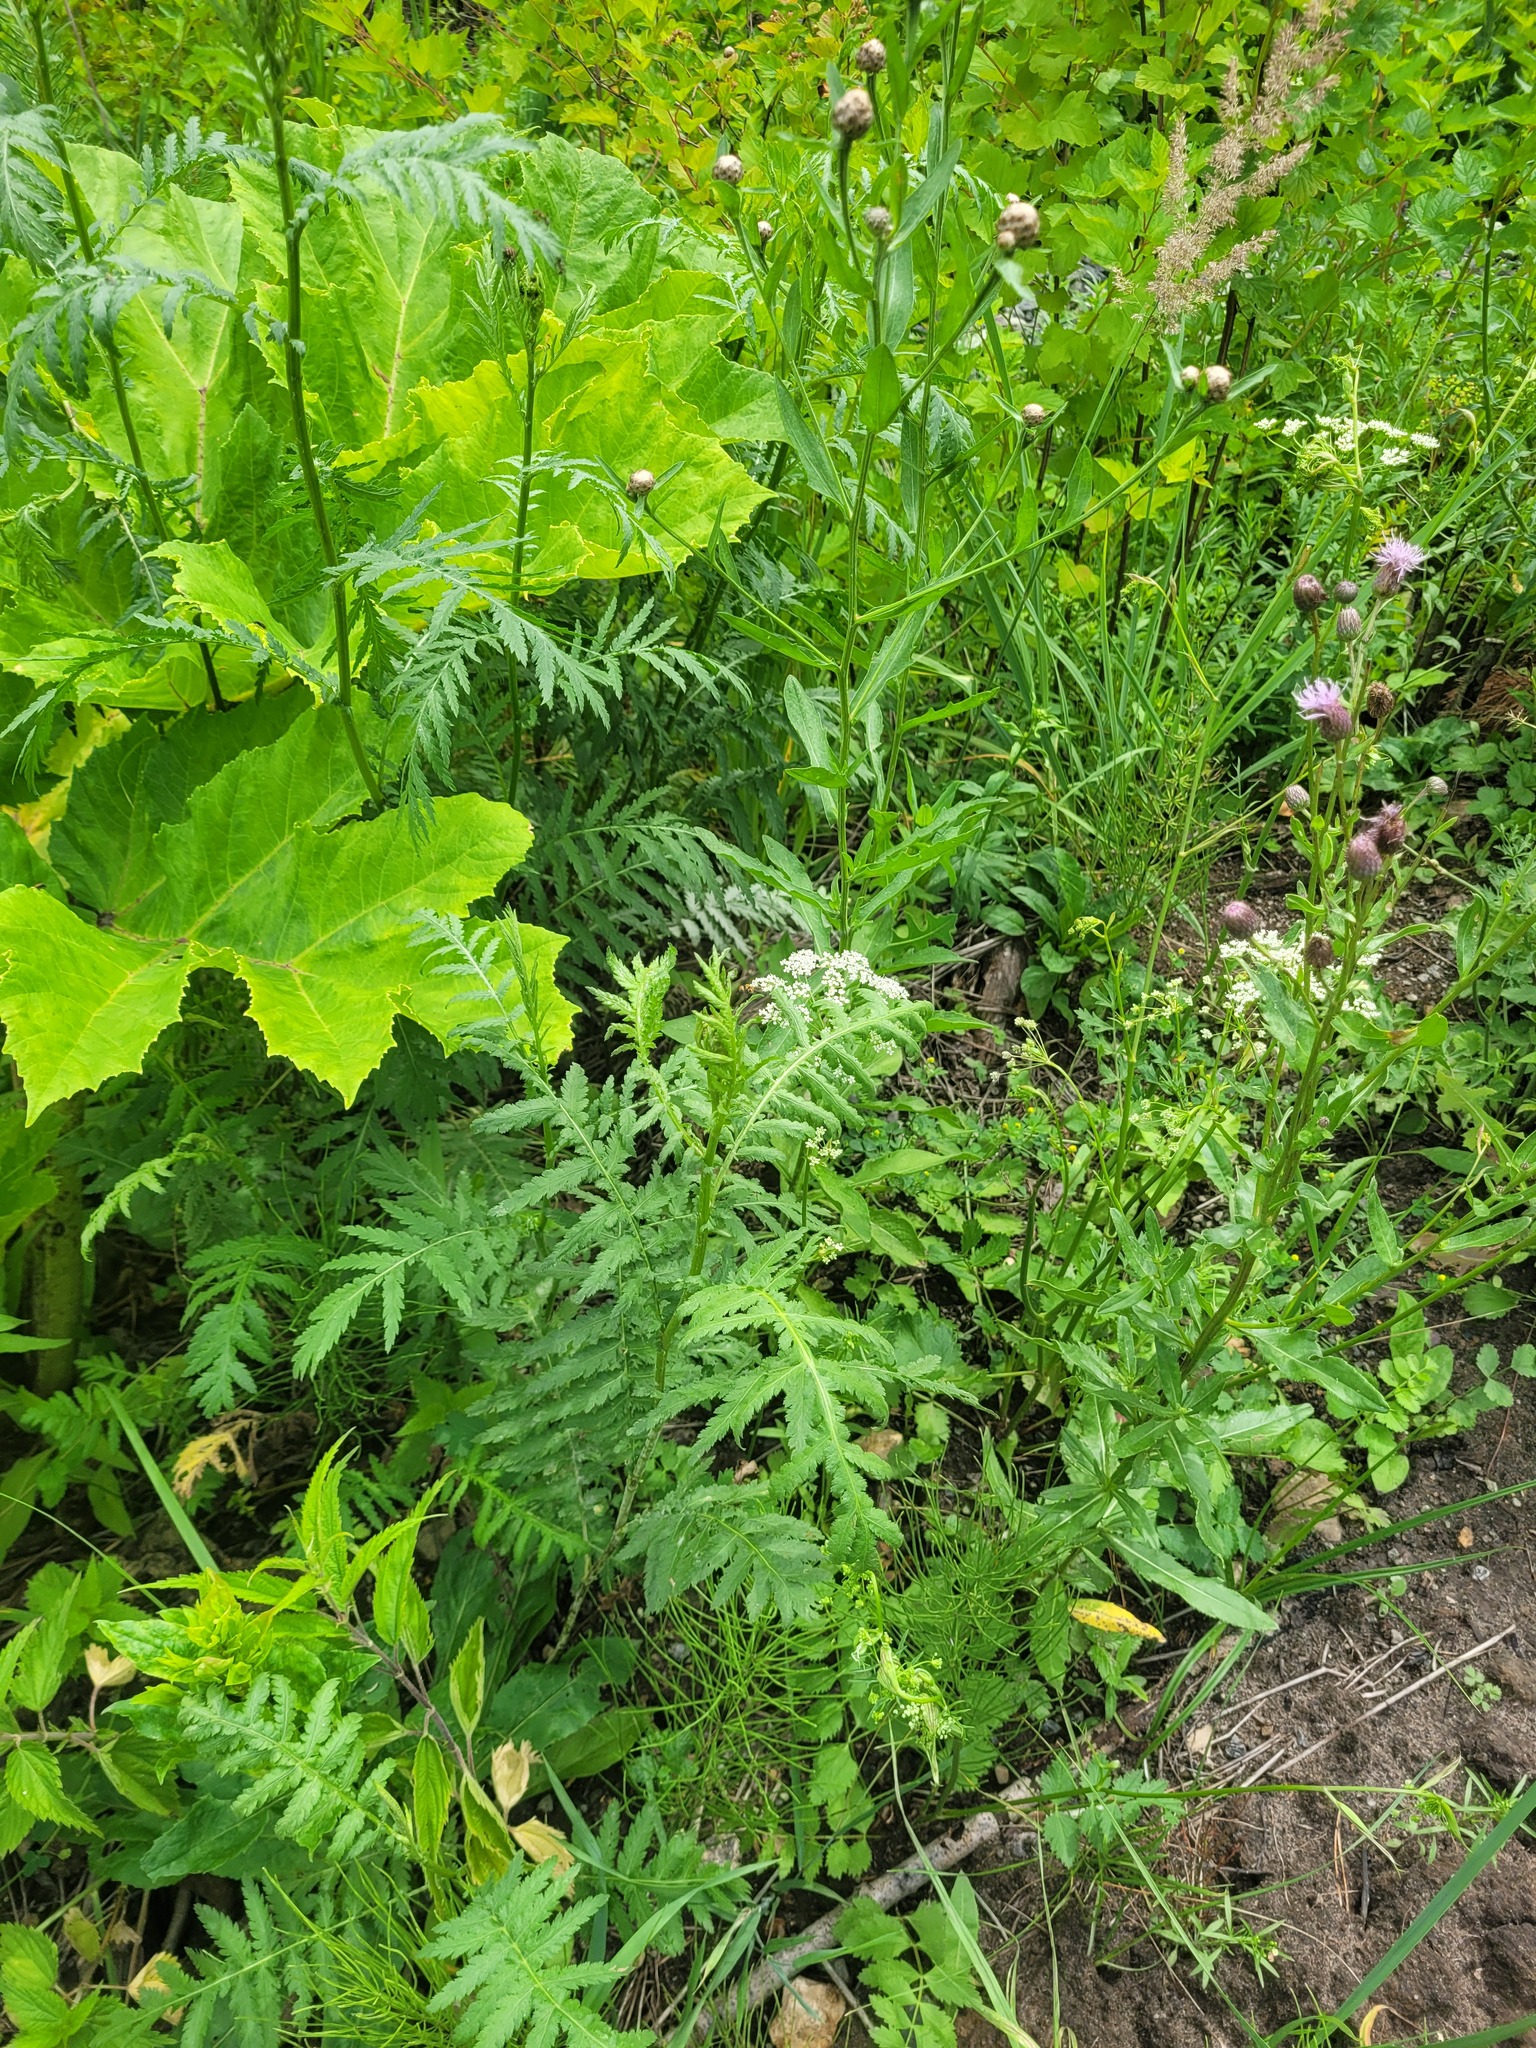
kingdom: Plantae
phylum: Tracheophyta
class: Magnoliopsida
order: Asterales
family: Asteraceae
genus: Tanacetum
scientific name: Tanacetum vulgare
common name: Common tansy
